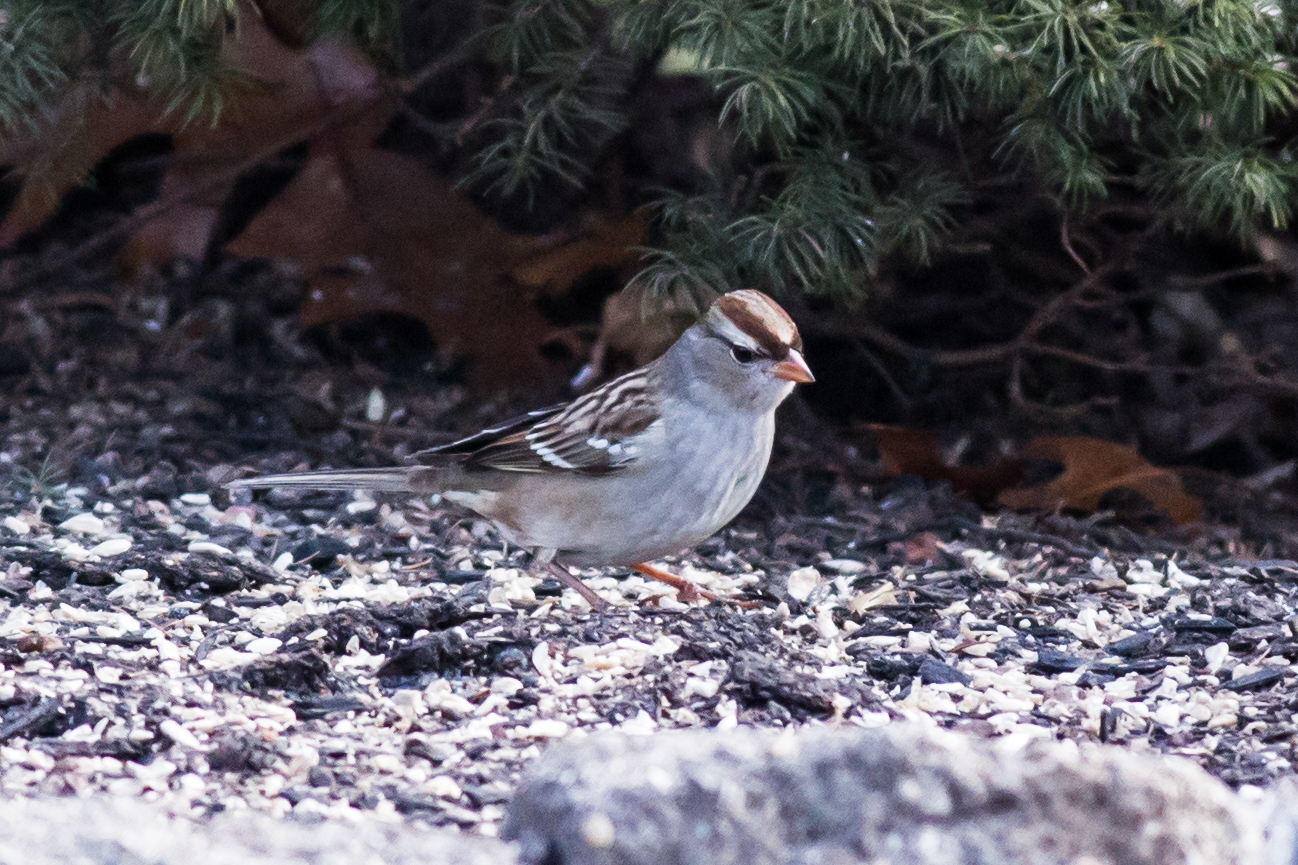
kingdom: Animalia
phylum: Chordata
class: Aves
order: Passeriformes
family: Passerellidae
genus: Zonotrichia
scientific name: Zonotrichia leucophrys
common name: White-crowned sparrow
